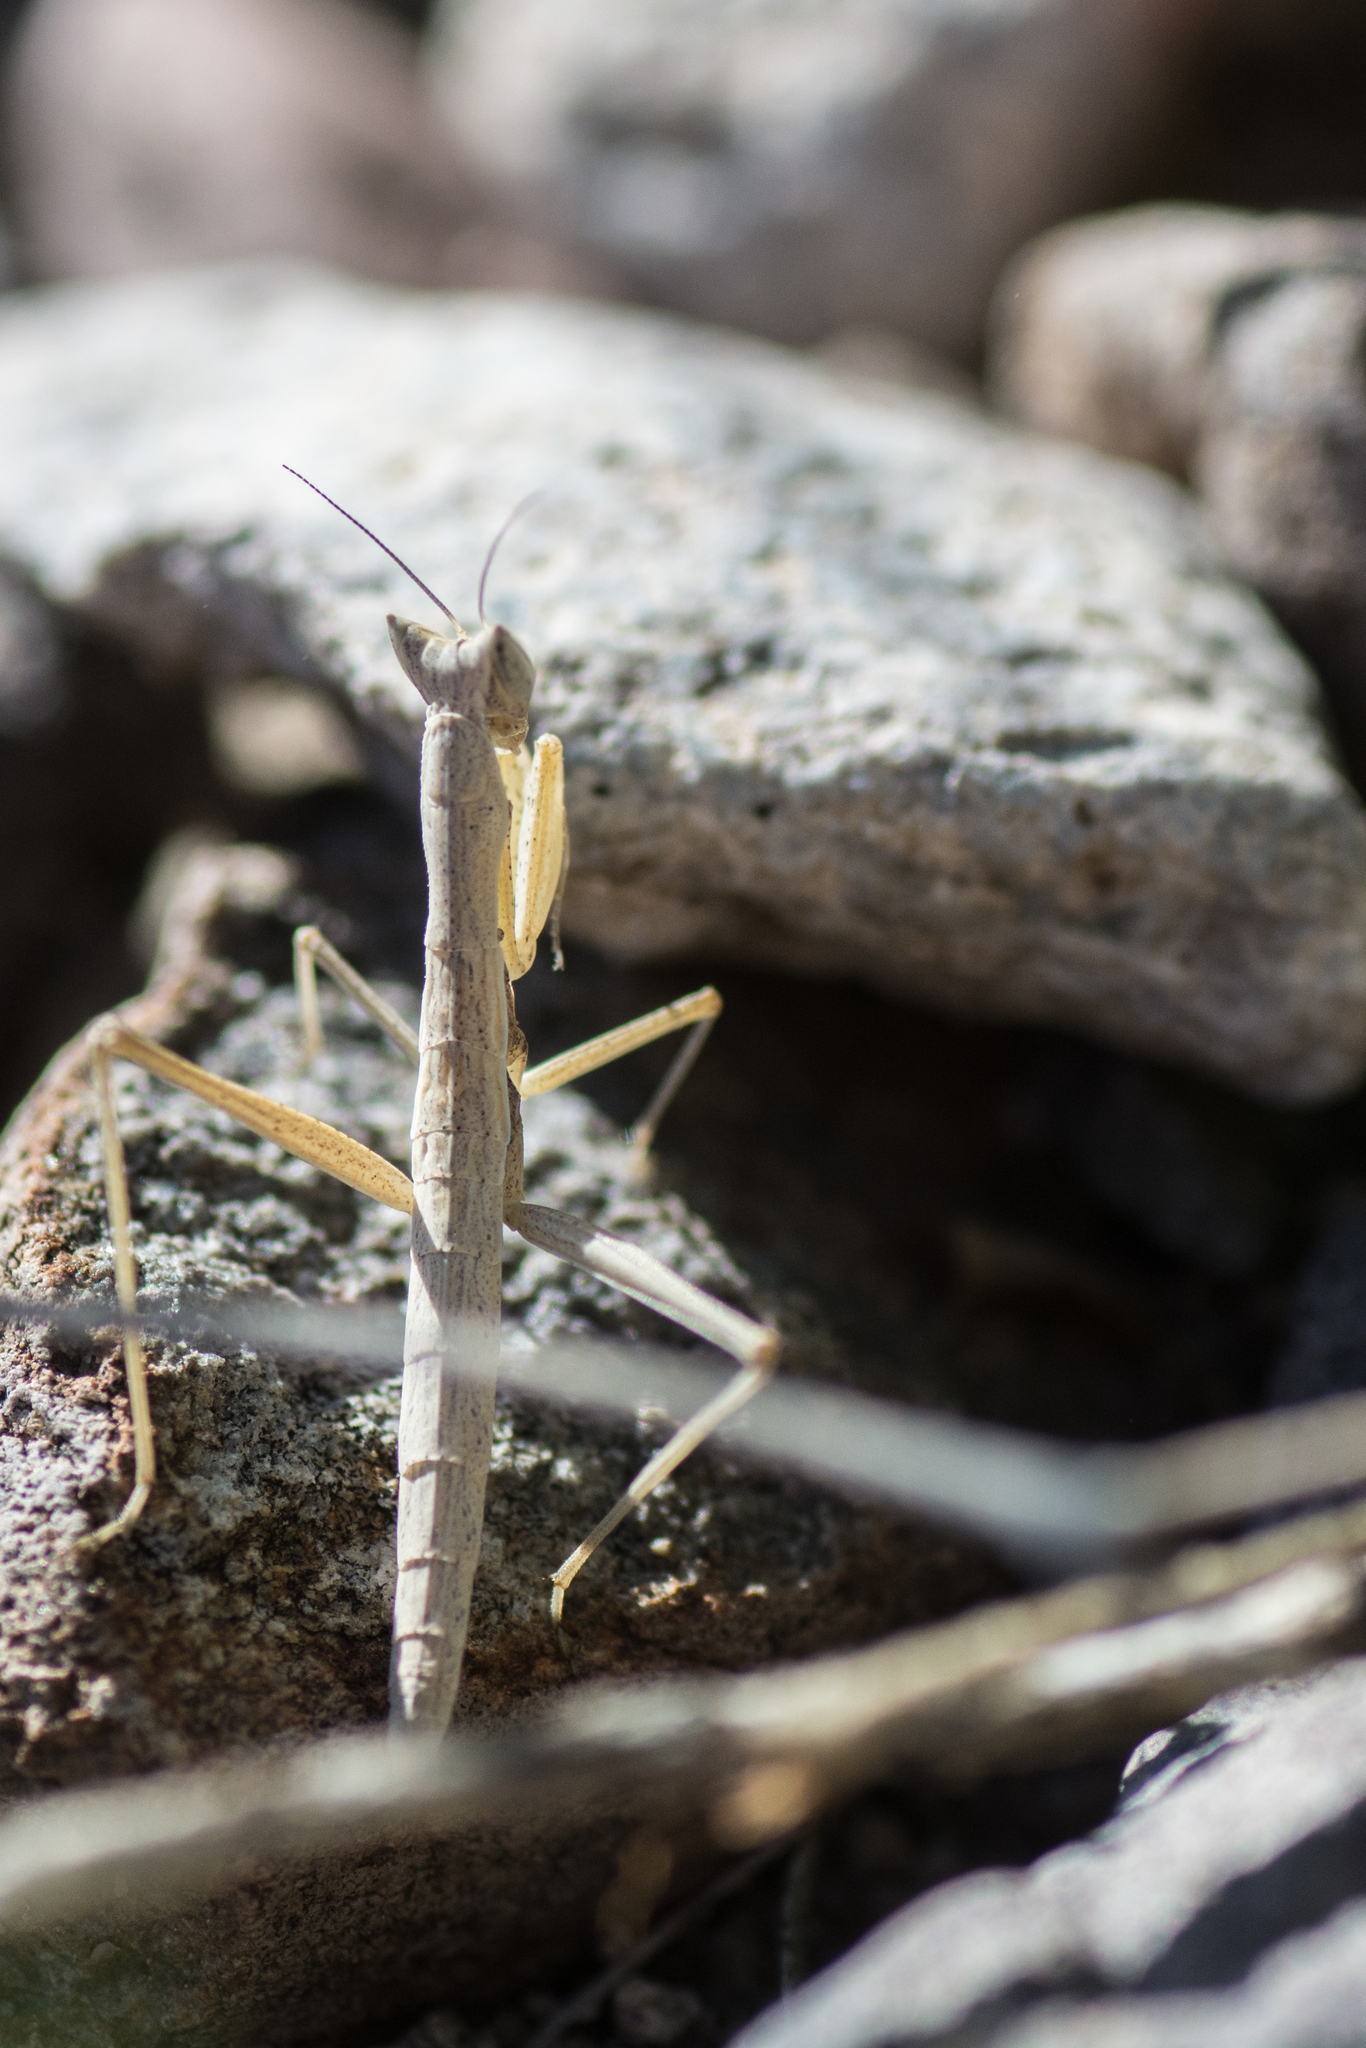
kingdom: Animalia
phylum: Arthropoda
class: Insecta
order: Mantodea
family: Amelidae
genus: Yersiniops
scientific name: Yersiniops solitarius
